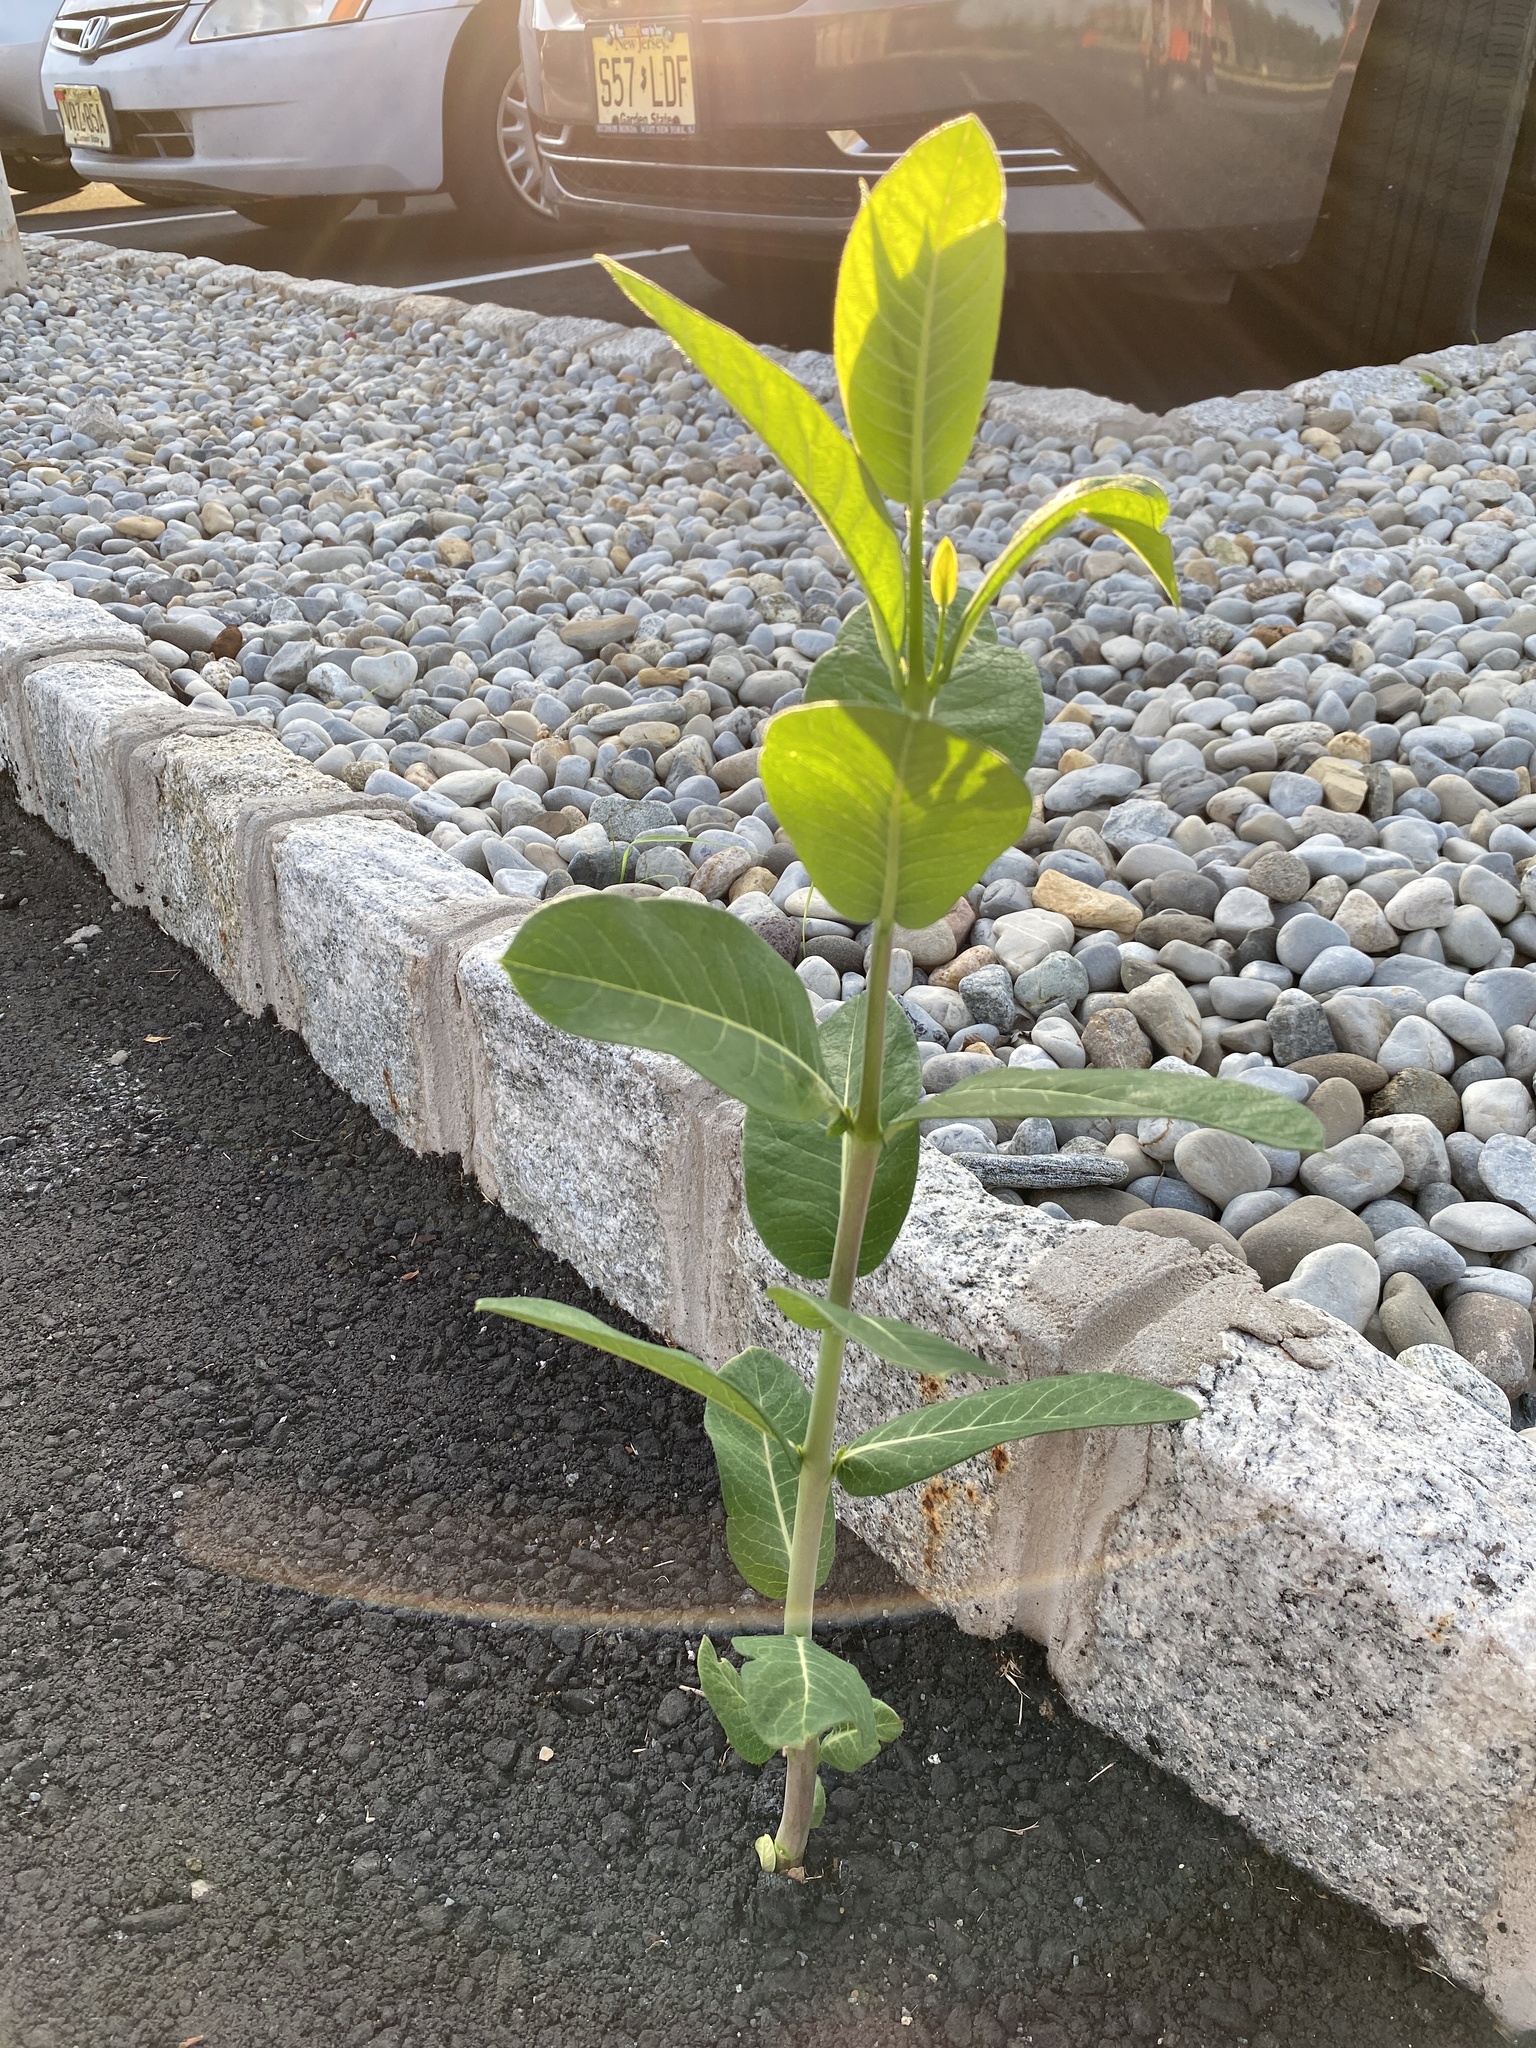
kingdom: Plantae
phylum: Tracheophyta
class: Magnoliopsida
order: Gentianales
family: Apocynaceae
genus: Asclepias
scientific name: Asclepias syriaca
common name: Common milkweed
